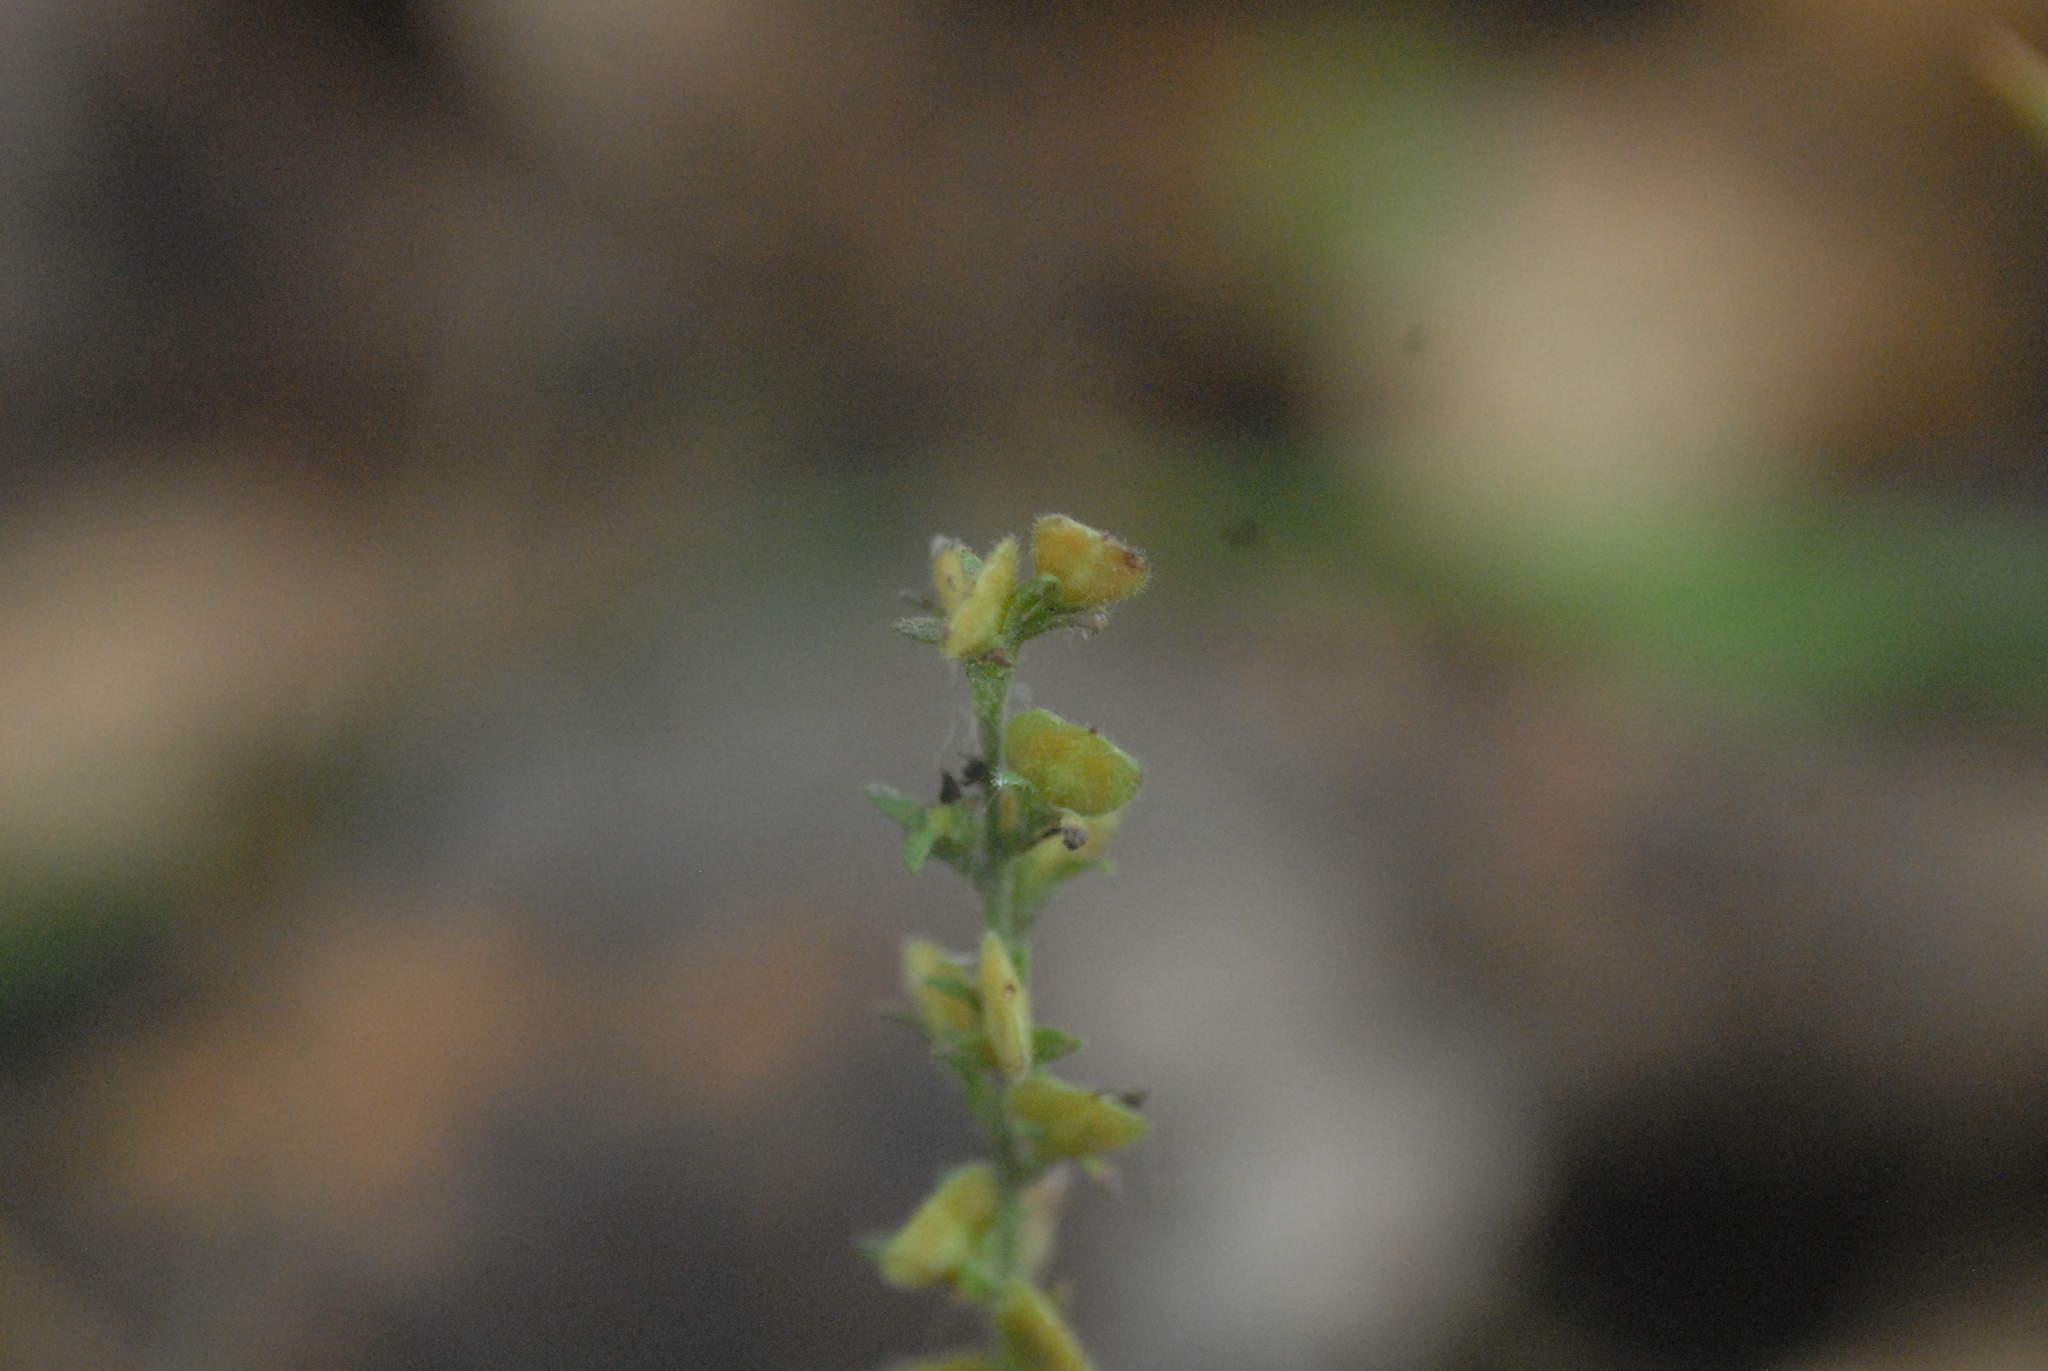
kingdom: Plantae
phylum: Tracheophyta
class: Magnoliopsida
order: Lamiales
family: Plantaginaceae
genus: Veronica
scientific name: Veronica officinalis
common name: Common speedwell
